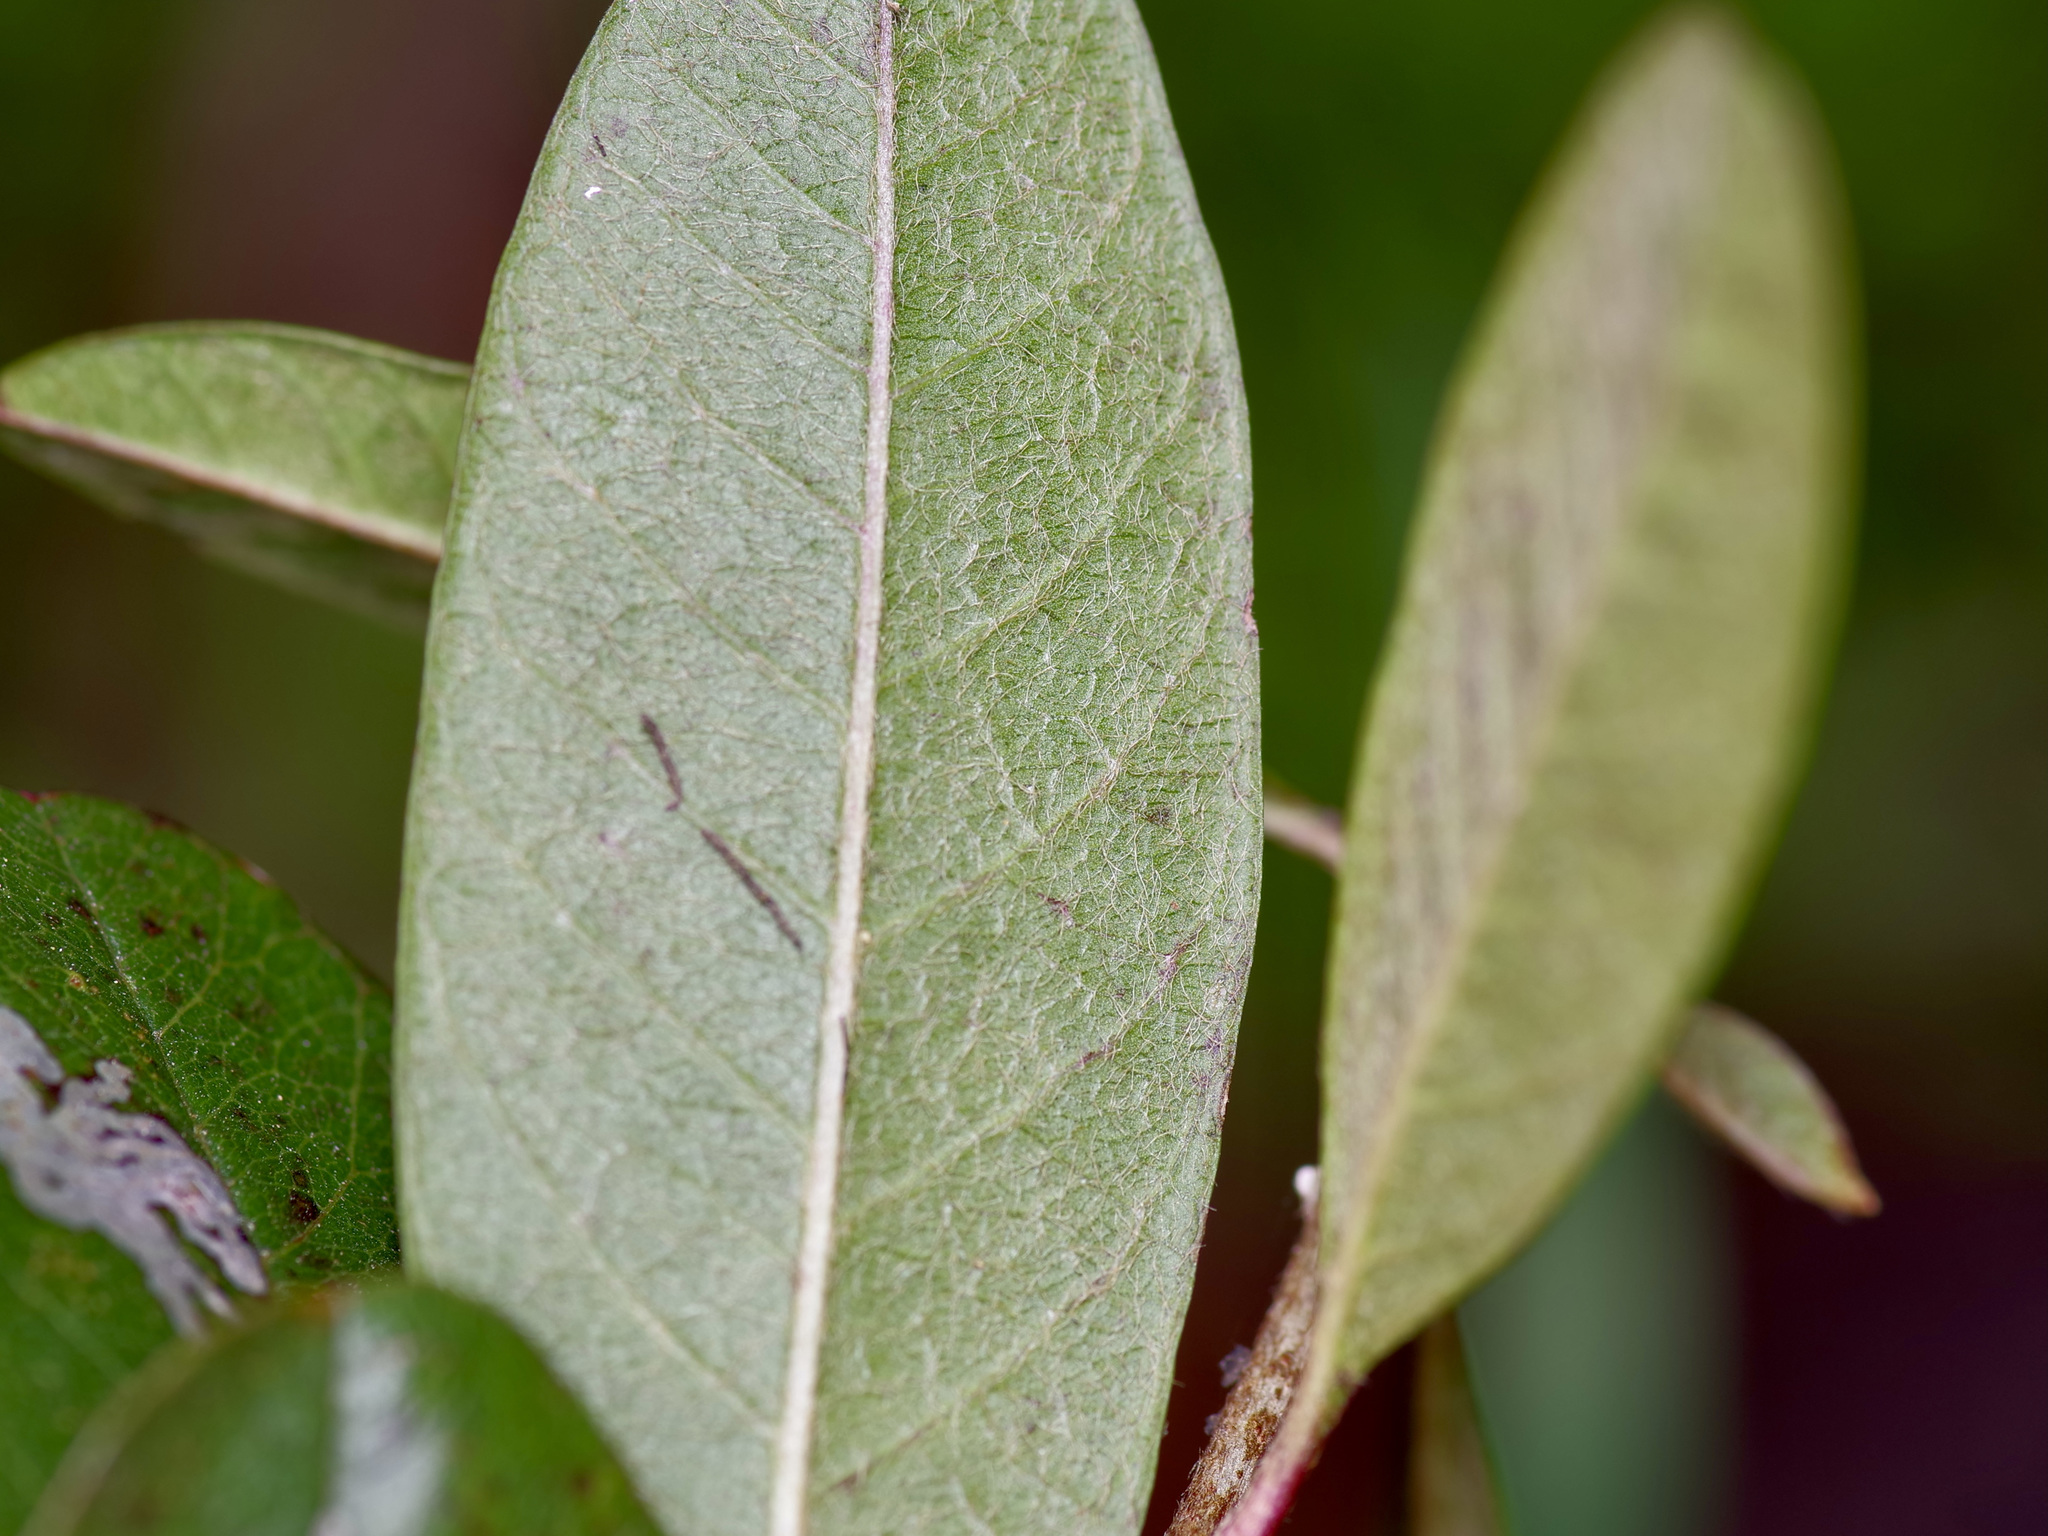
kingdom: Plantae
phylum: Tracheophyta
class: Magnoliopsida
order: Ericales
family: Sapotaceae
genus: Sideroxylon
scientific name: Sideroxylon lanuginosum
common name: Chittamwood
